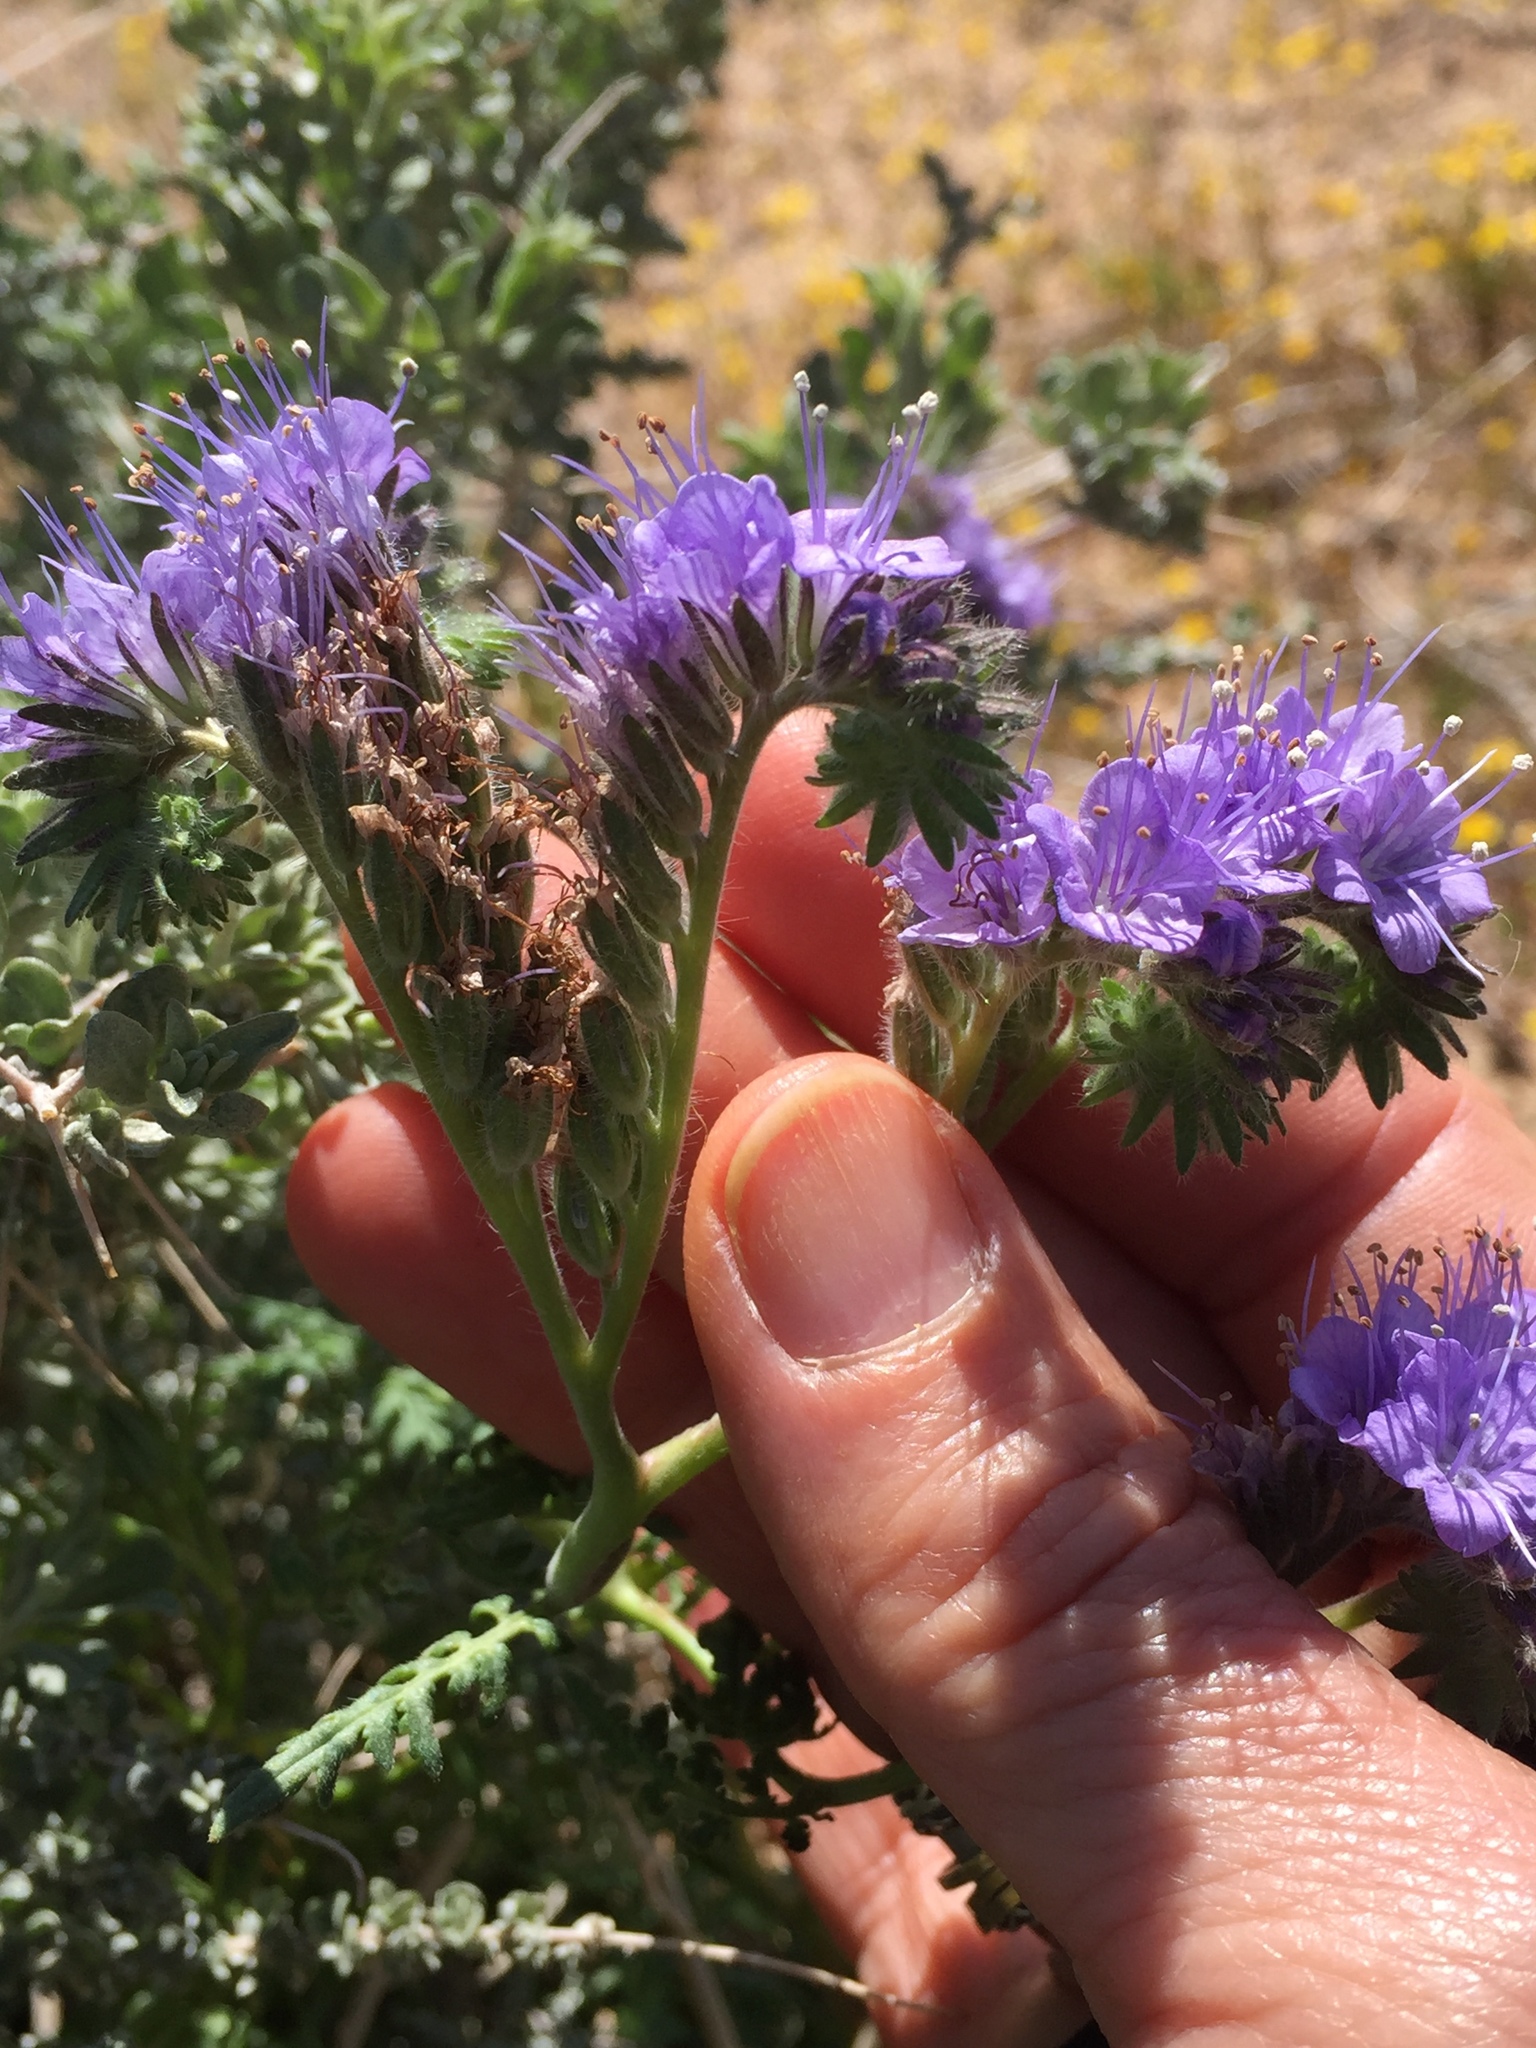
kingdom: Plantae
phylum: Tracheophyta
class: Magnoliopsida
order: Boraginales
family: Hydrophyllaceae
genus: Phacelia
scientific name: Phacelia tanacetifolia
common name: Phacelia
